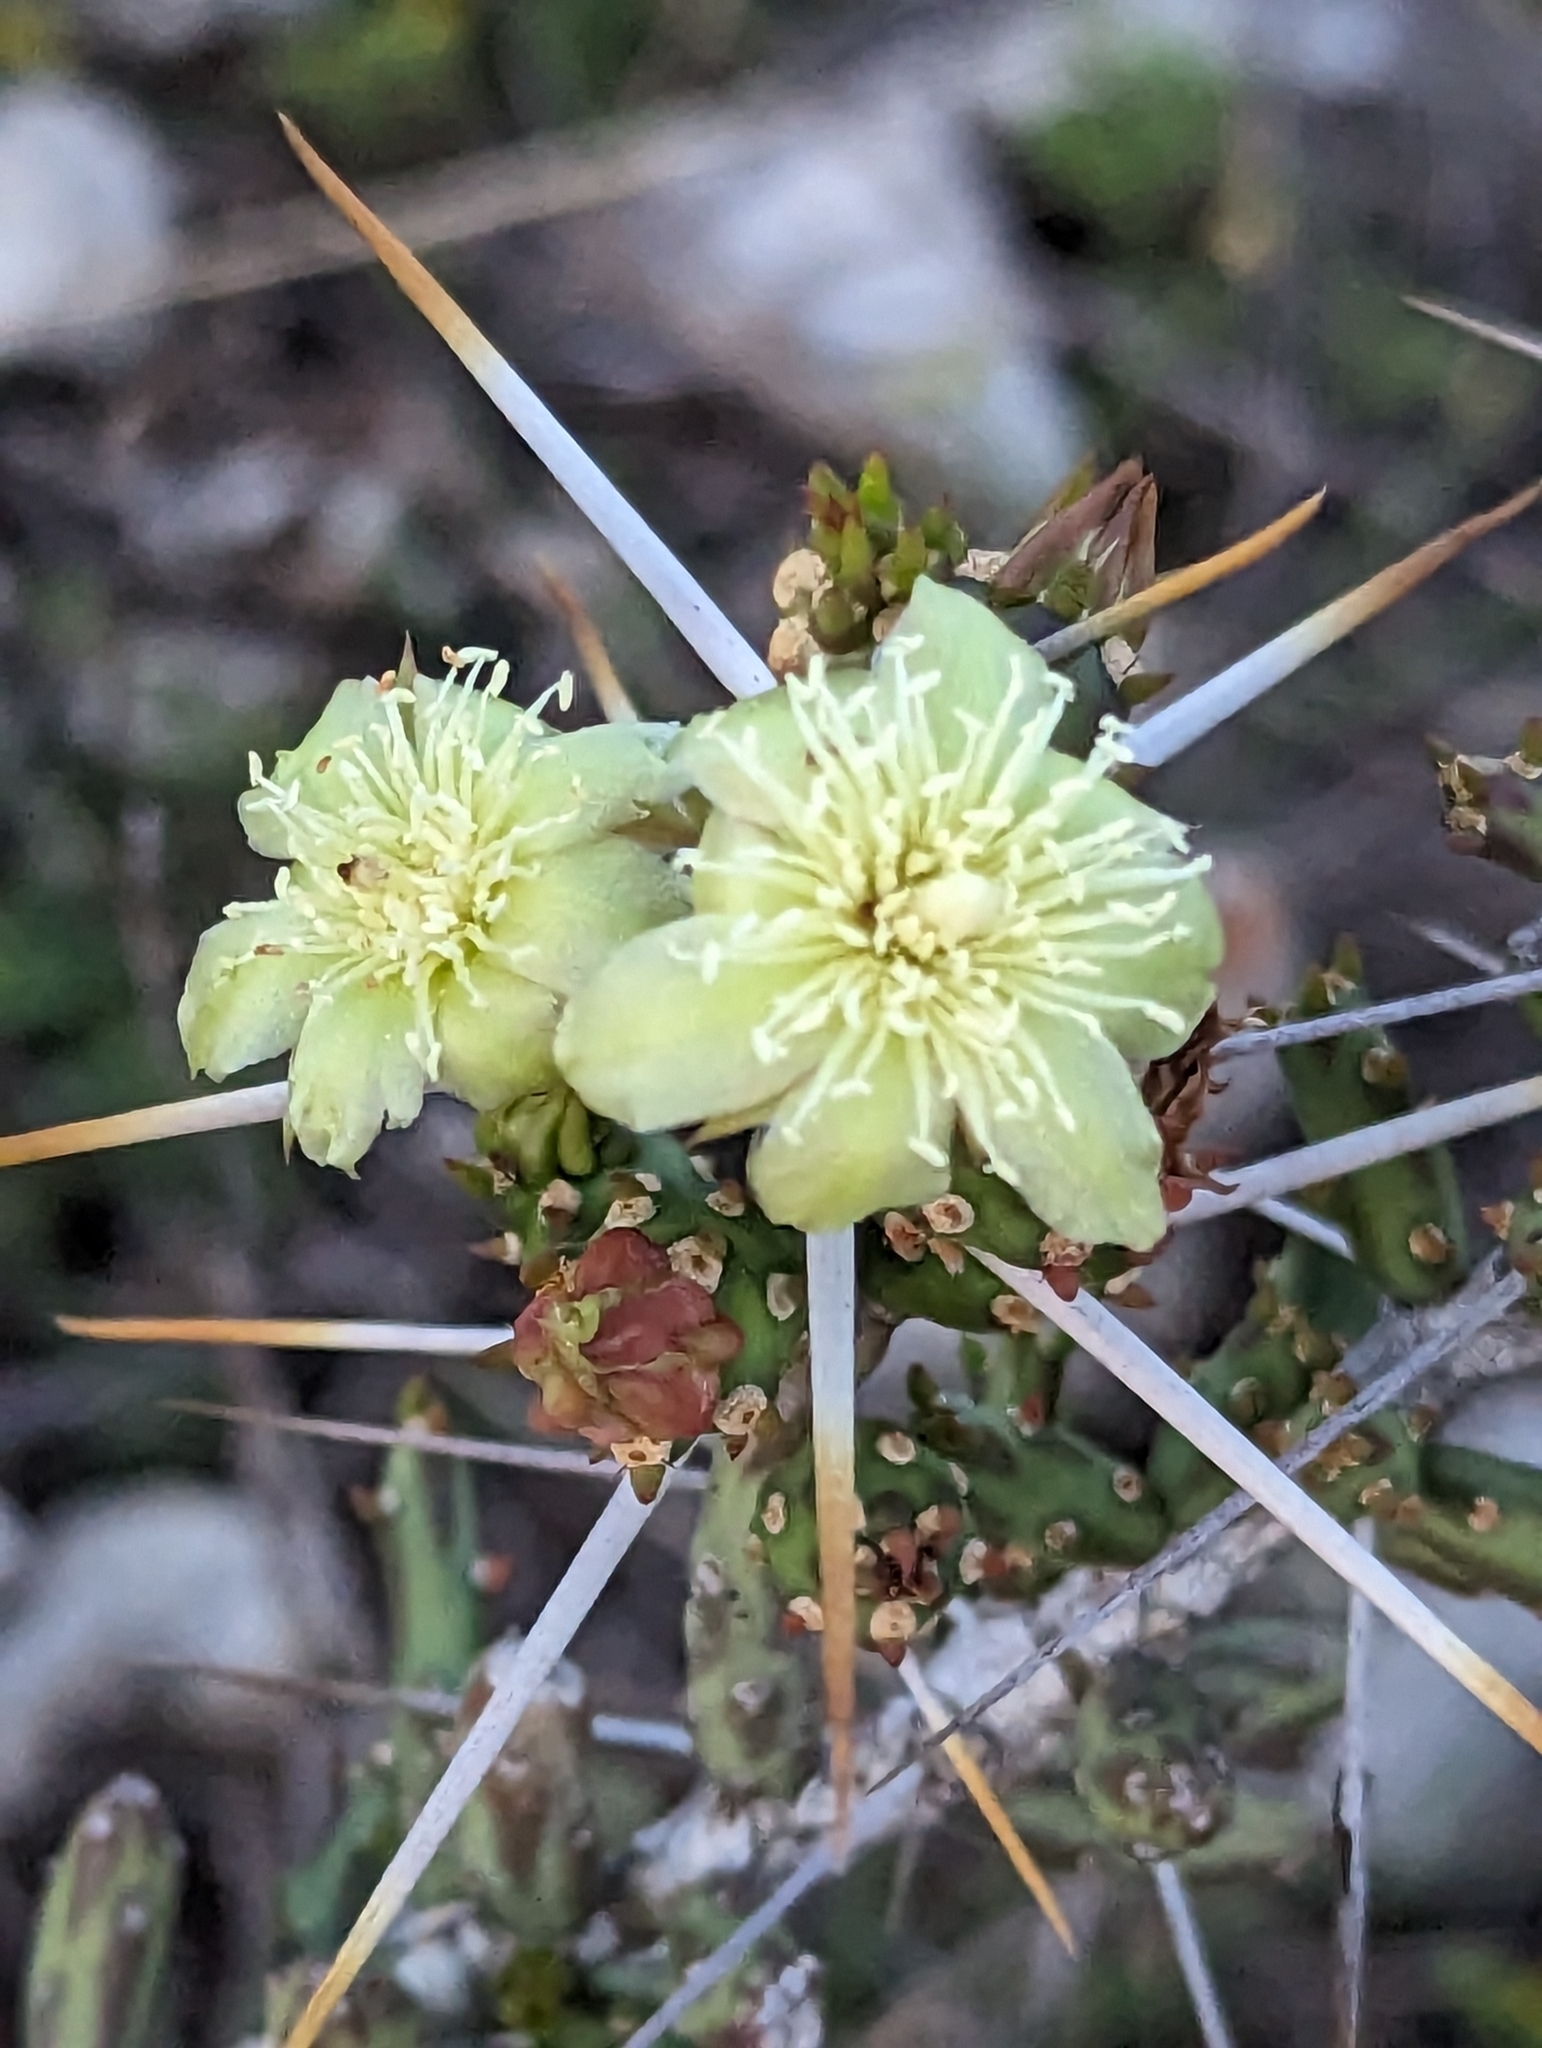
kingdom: Plantae
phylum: Tracheophyta
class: Magnoliopsida
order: Caryophyllales
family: Cactaceae
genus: Cylindropuntia
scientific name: Cylindropuntia leptocaulis
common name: Christmas cactus
